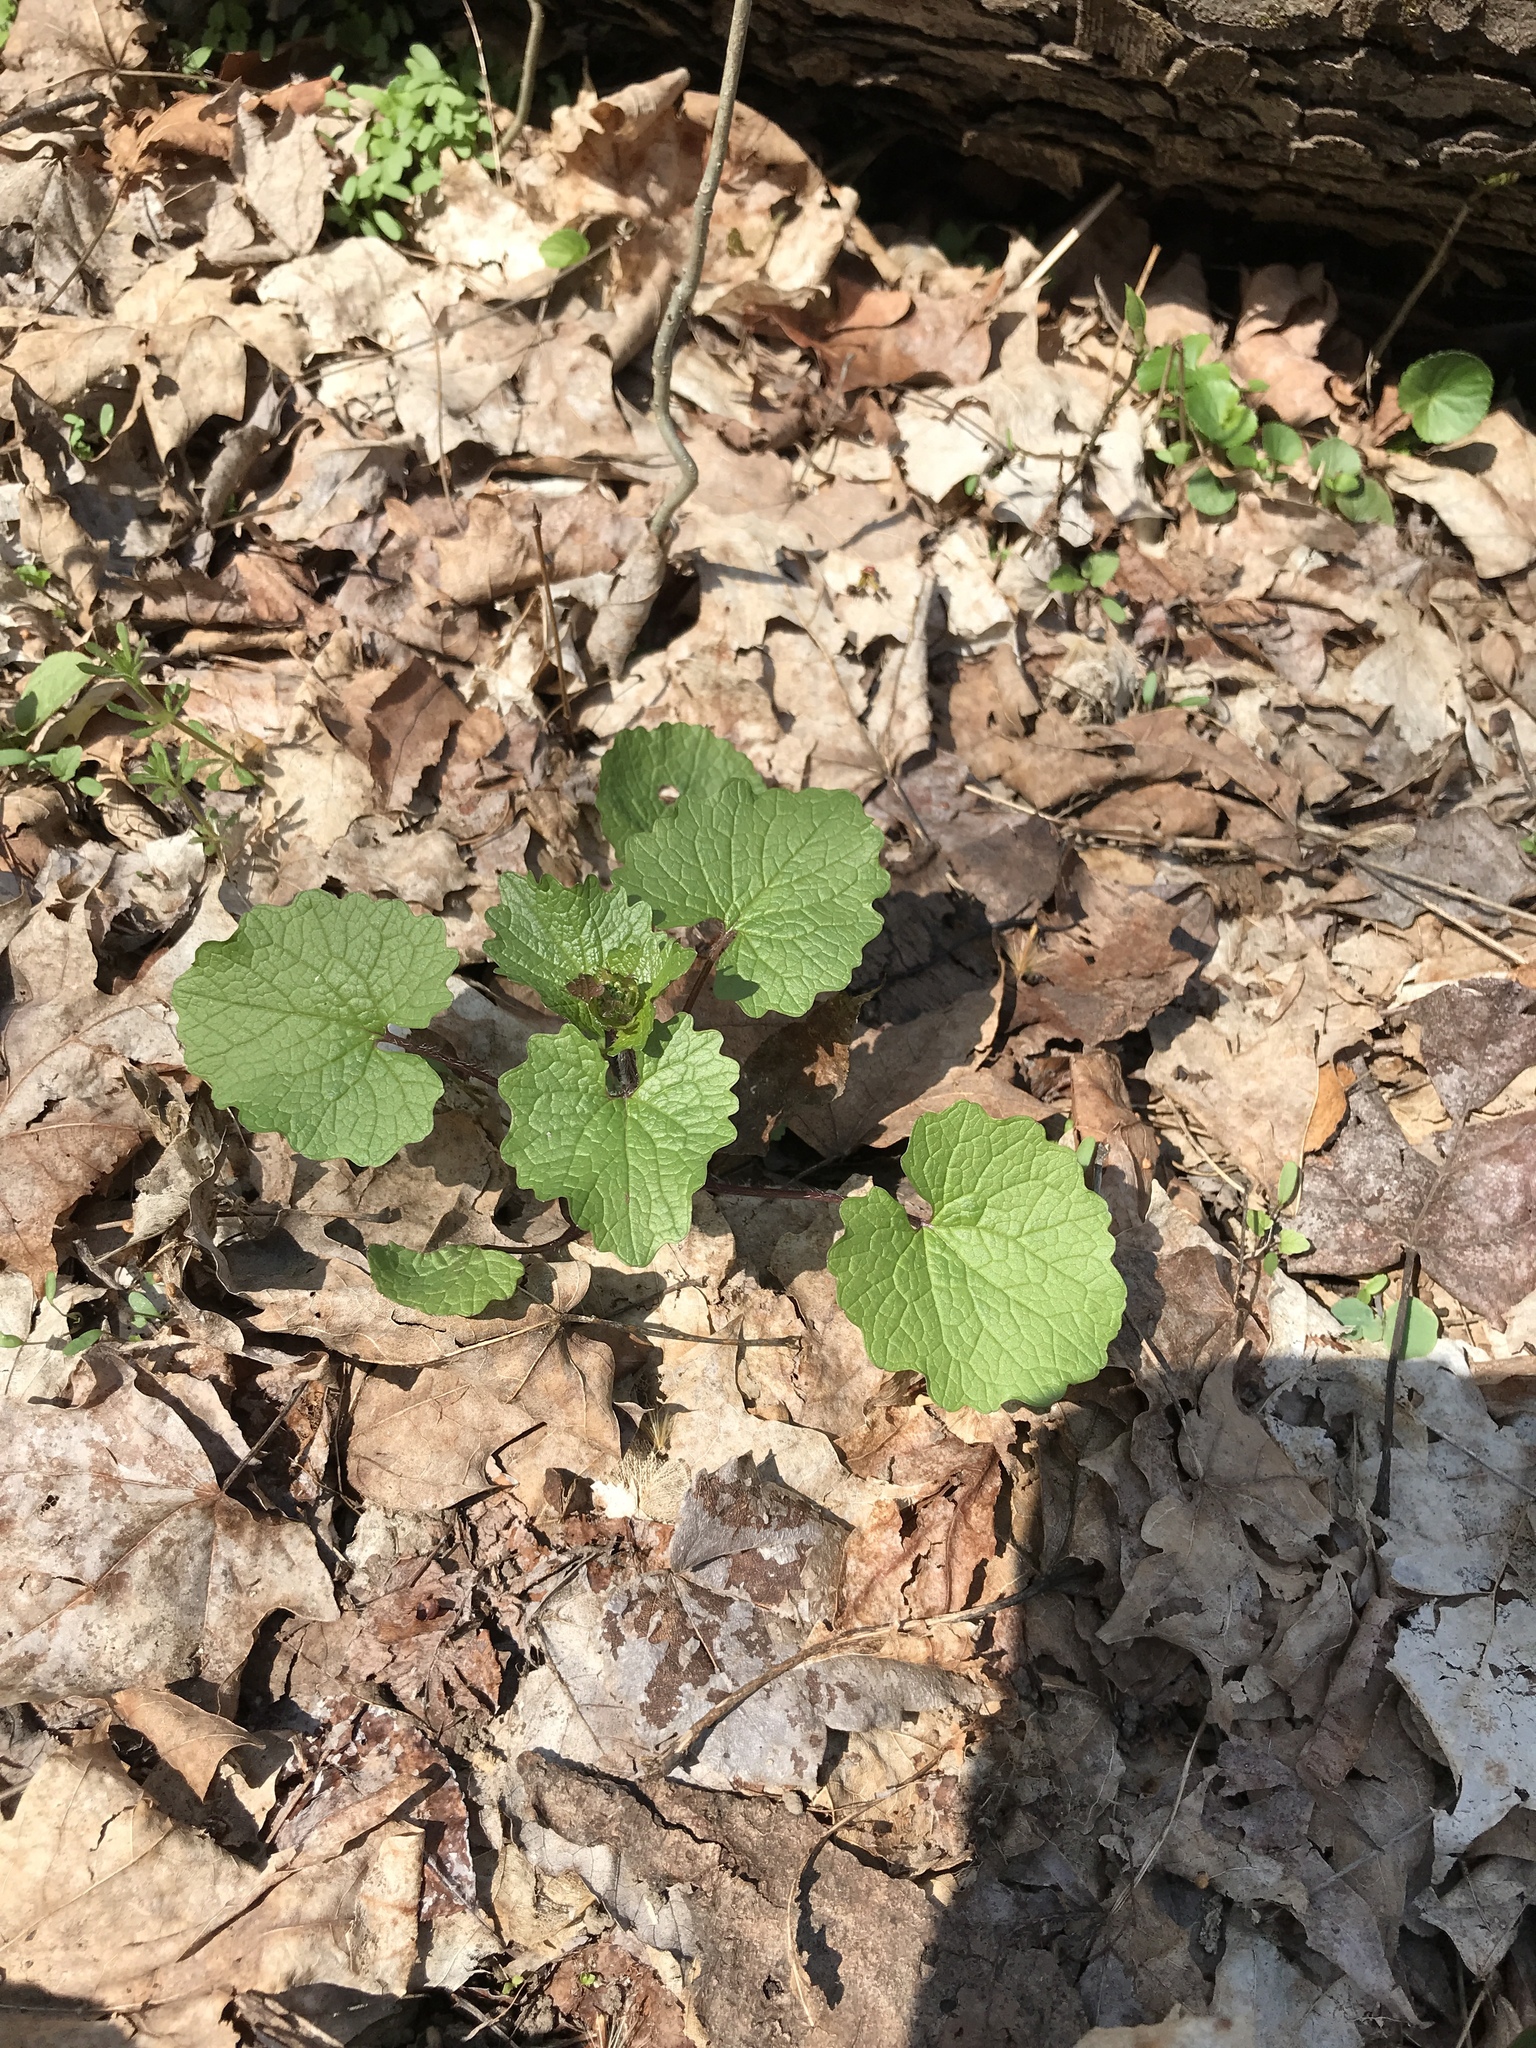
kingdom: Plantae
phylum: Tracheophyta
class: Magnoliopsida
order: Brassicales
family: Brassicaceae
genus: Alliaria
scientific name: Alliaria petiolata
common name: Garlic mustard
